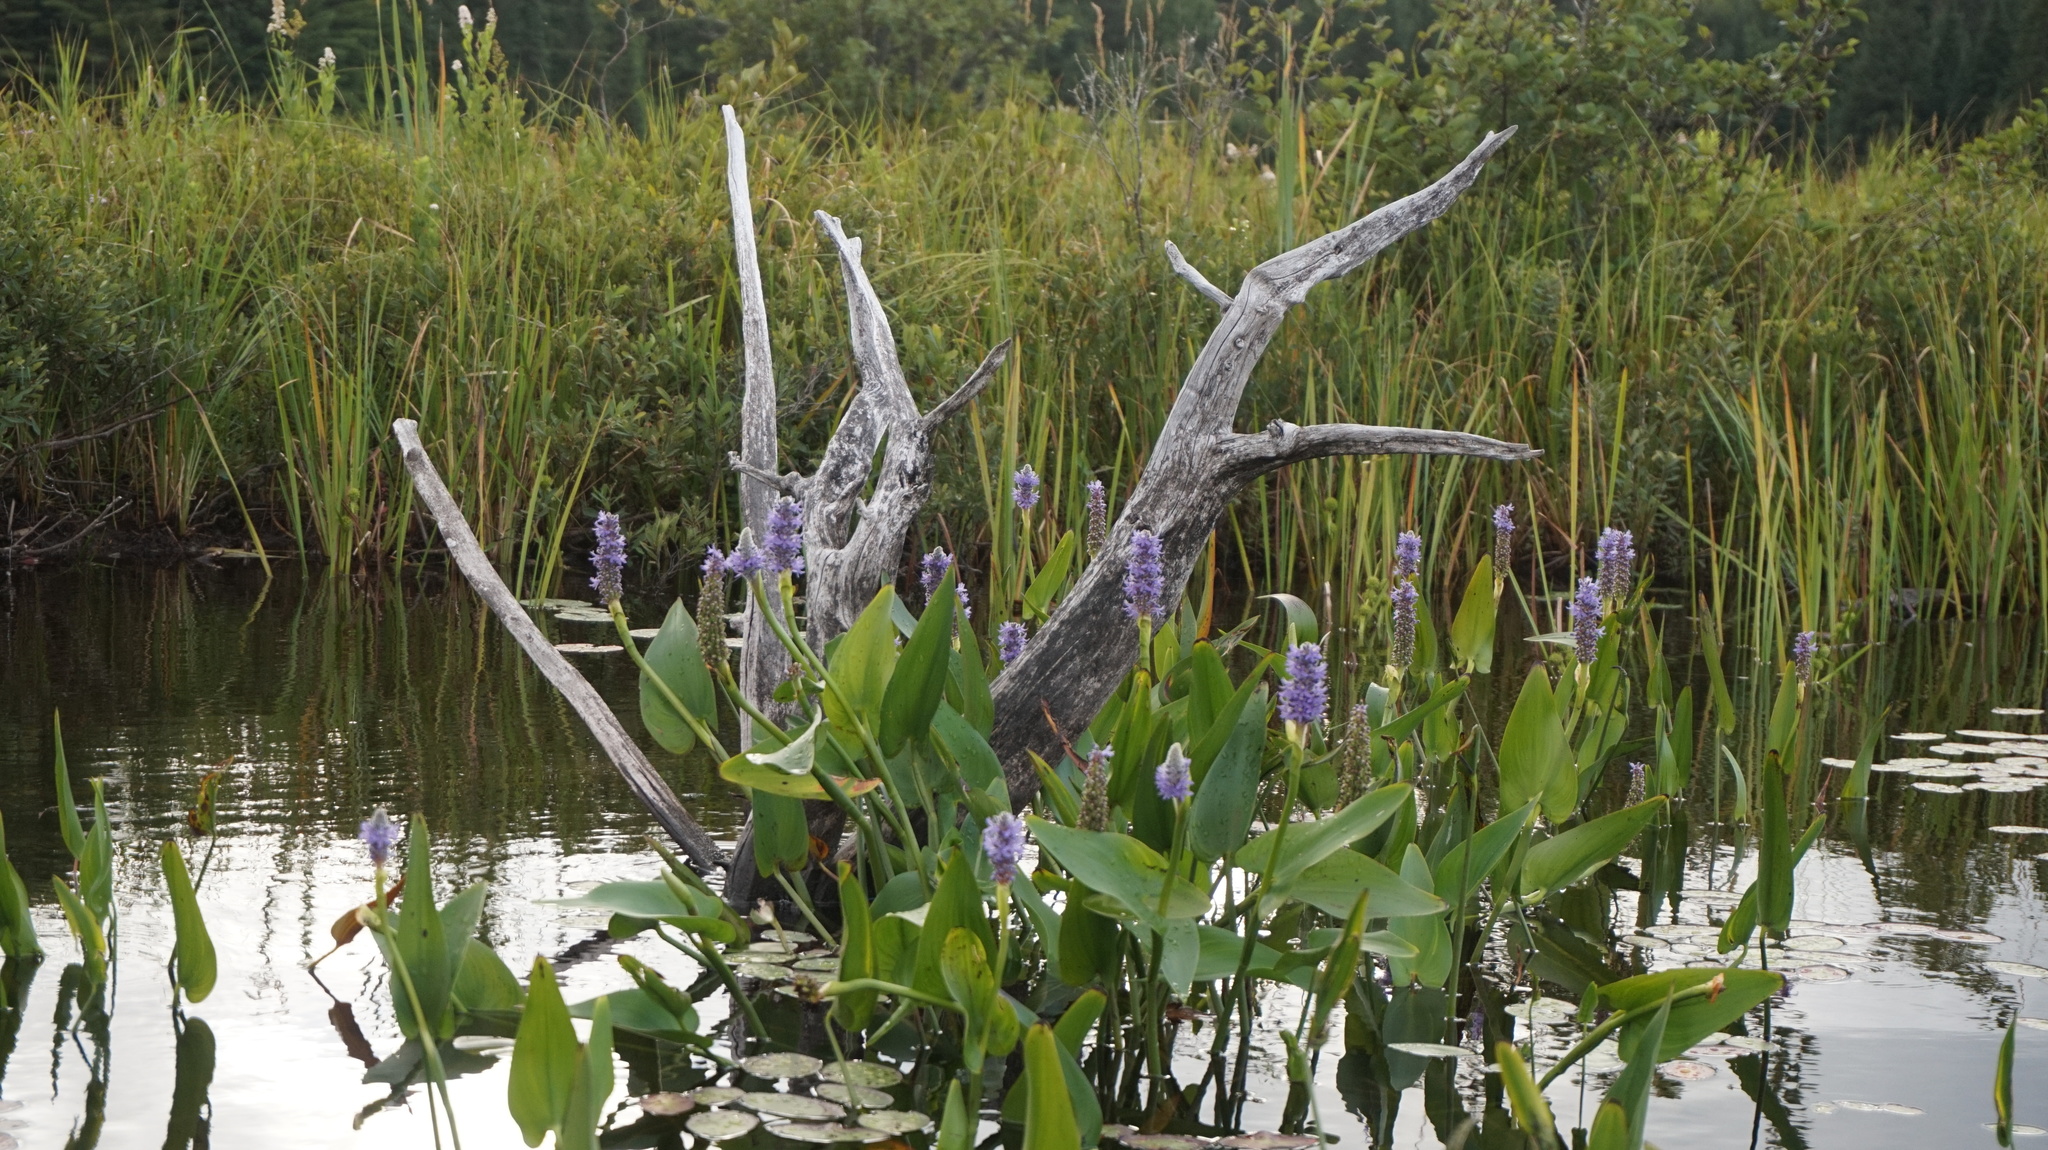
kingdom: Plantae
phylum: Tracheophyta
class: Liliopsida
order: Commelinales
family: Pontederiaceae
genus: Pontederia
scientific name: Pontederia cordata
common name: Pickerelweed
